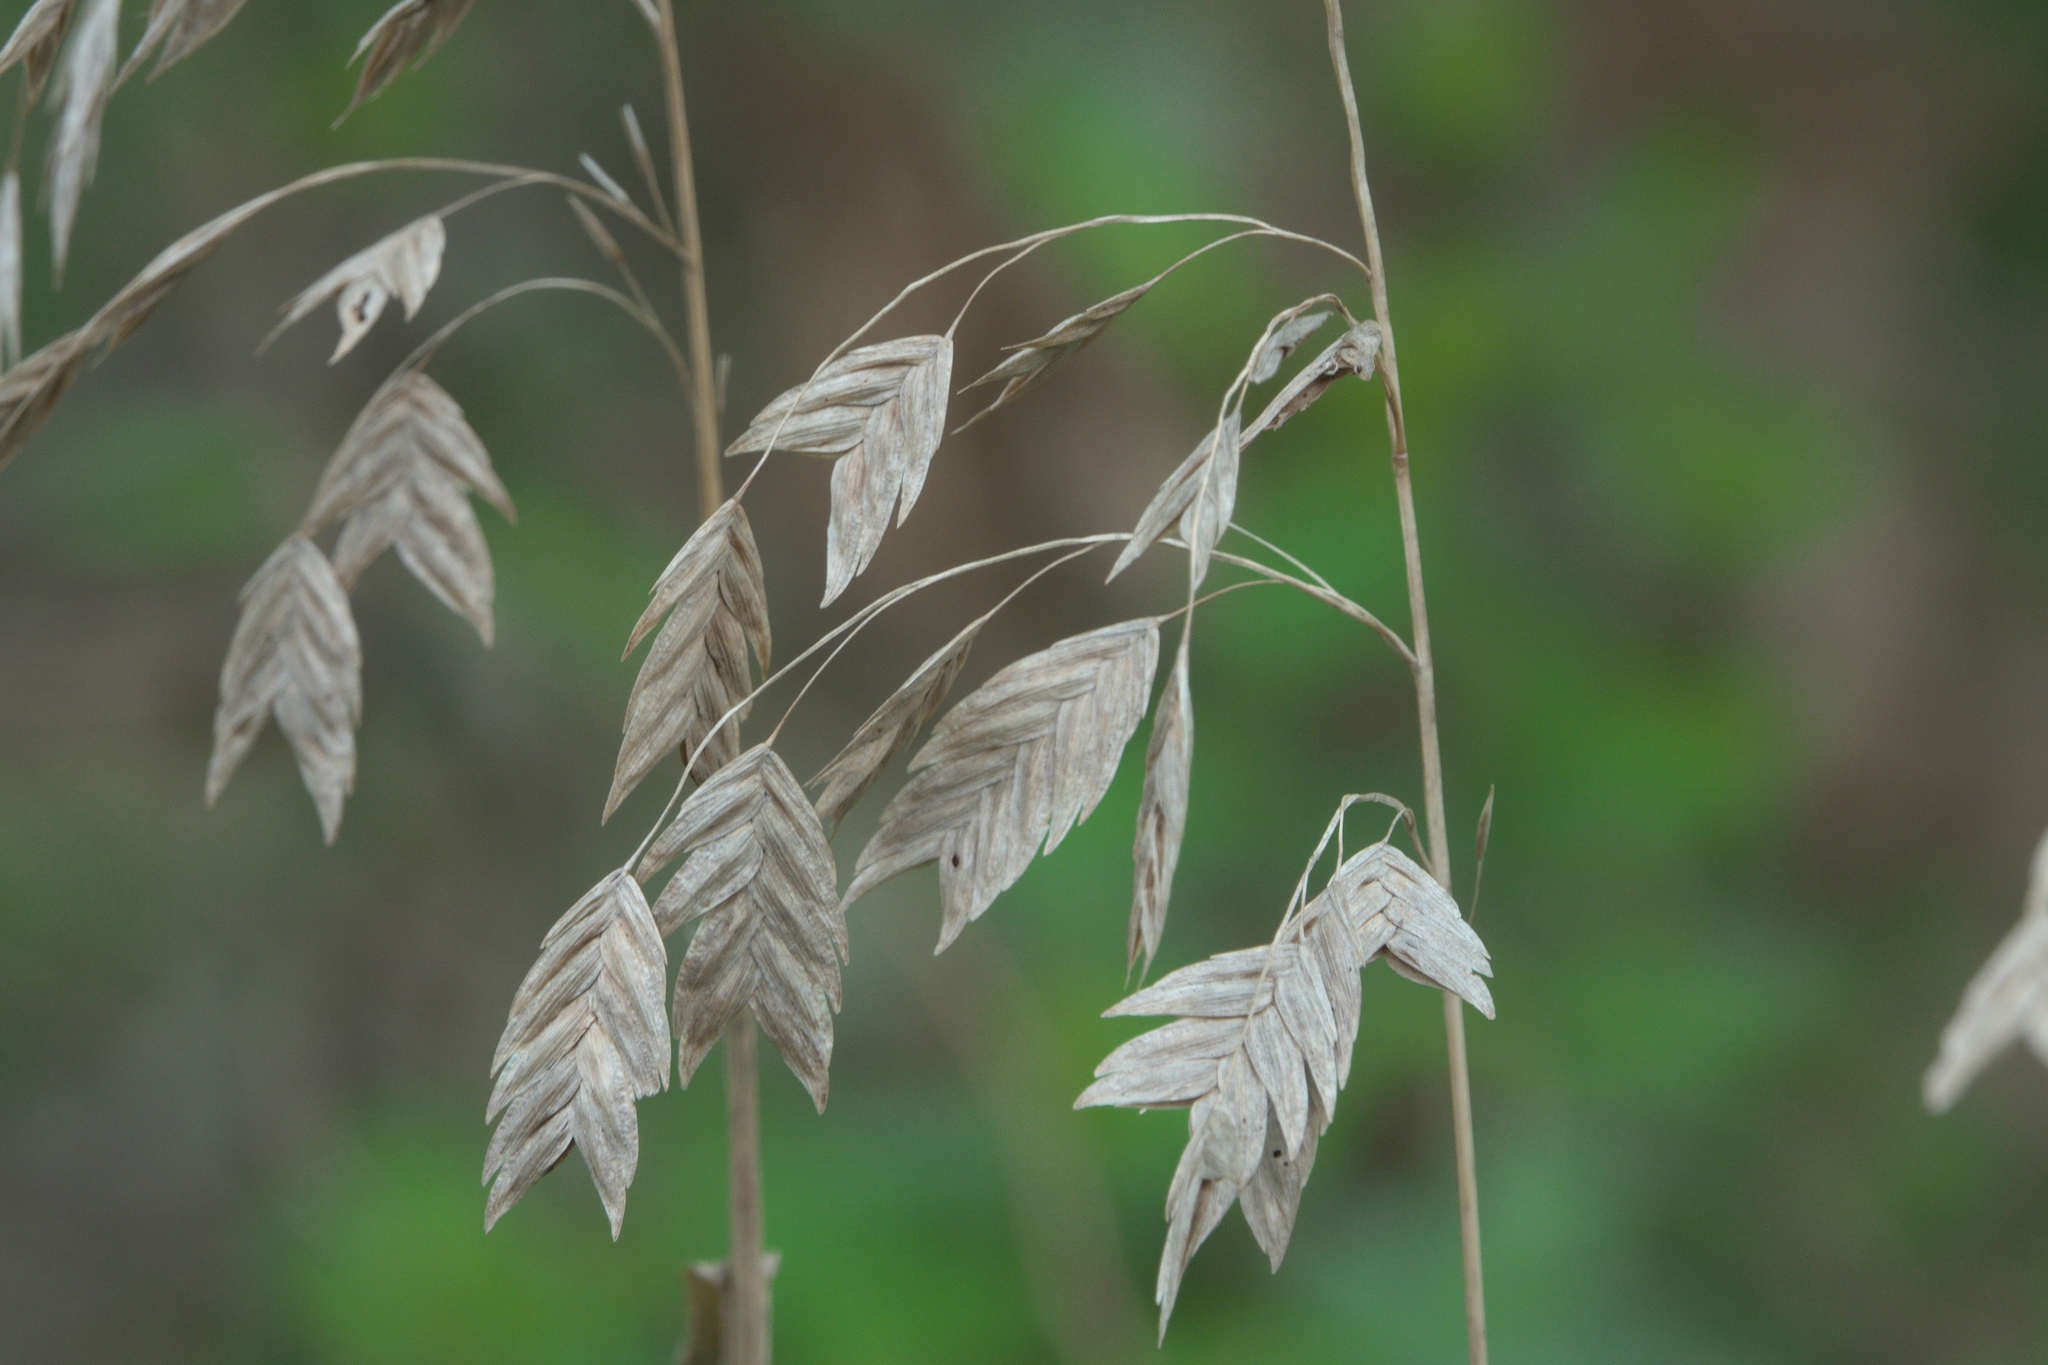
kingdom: Plantae
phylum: Tracheophyta
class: Liliopsida
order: Poales
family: Poaceae
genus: Chasmanthium
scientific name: Chasmanthium latifolium
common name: Broad-leaved chasmanthium
